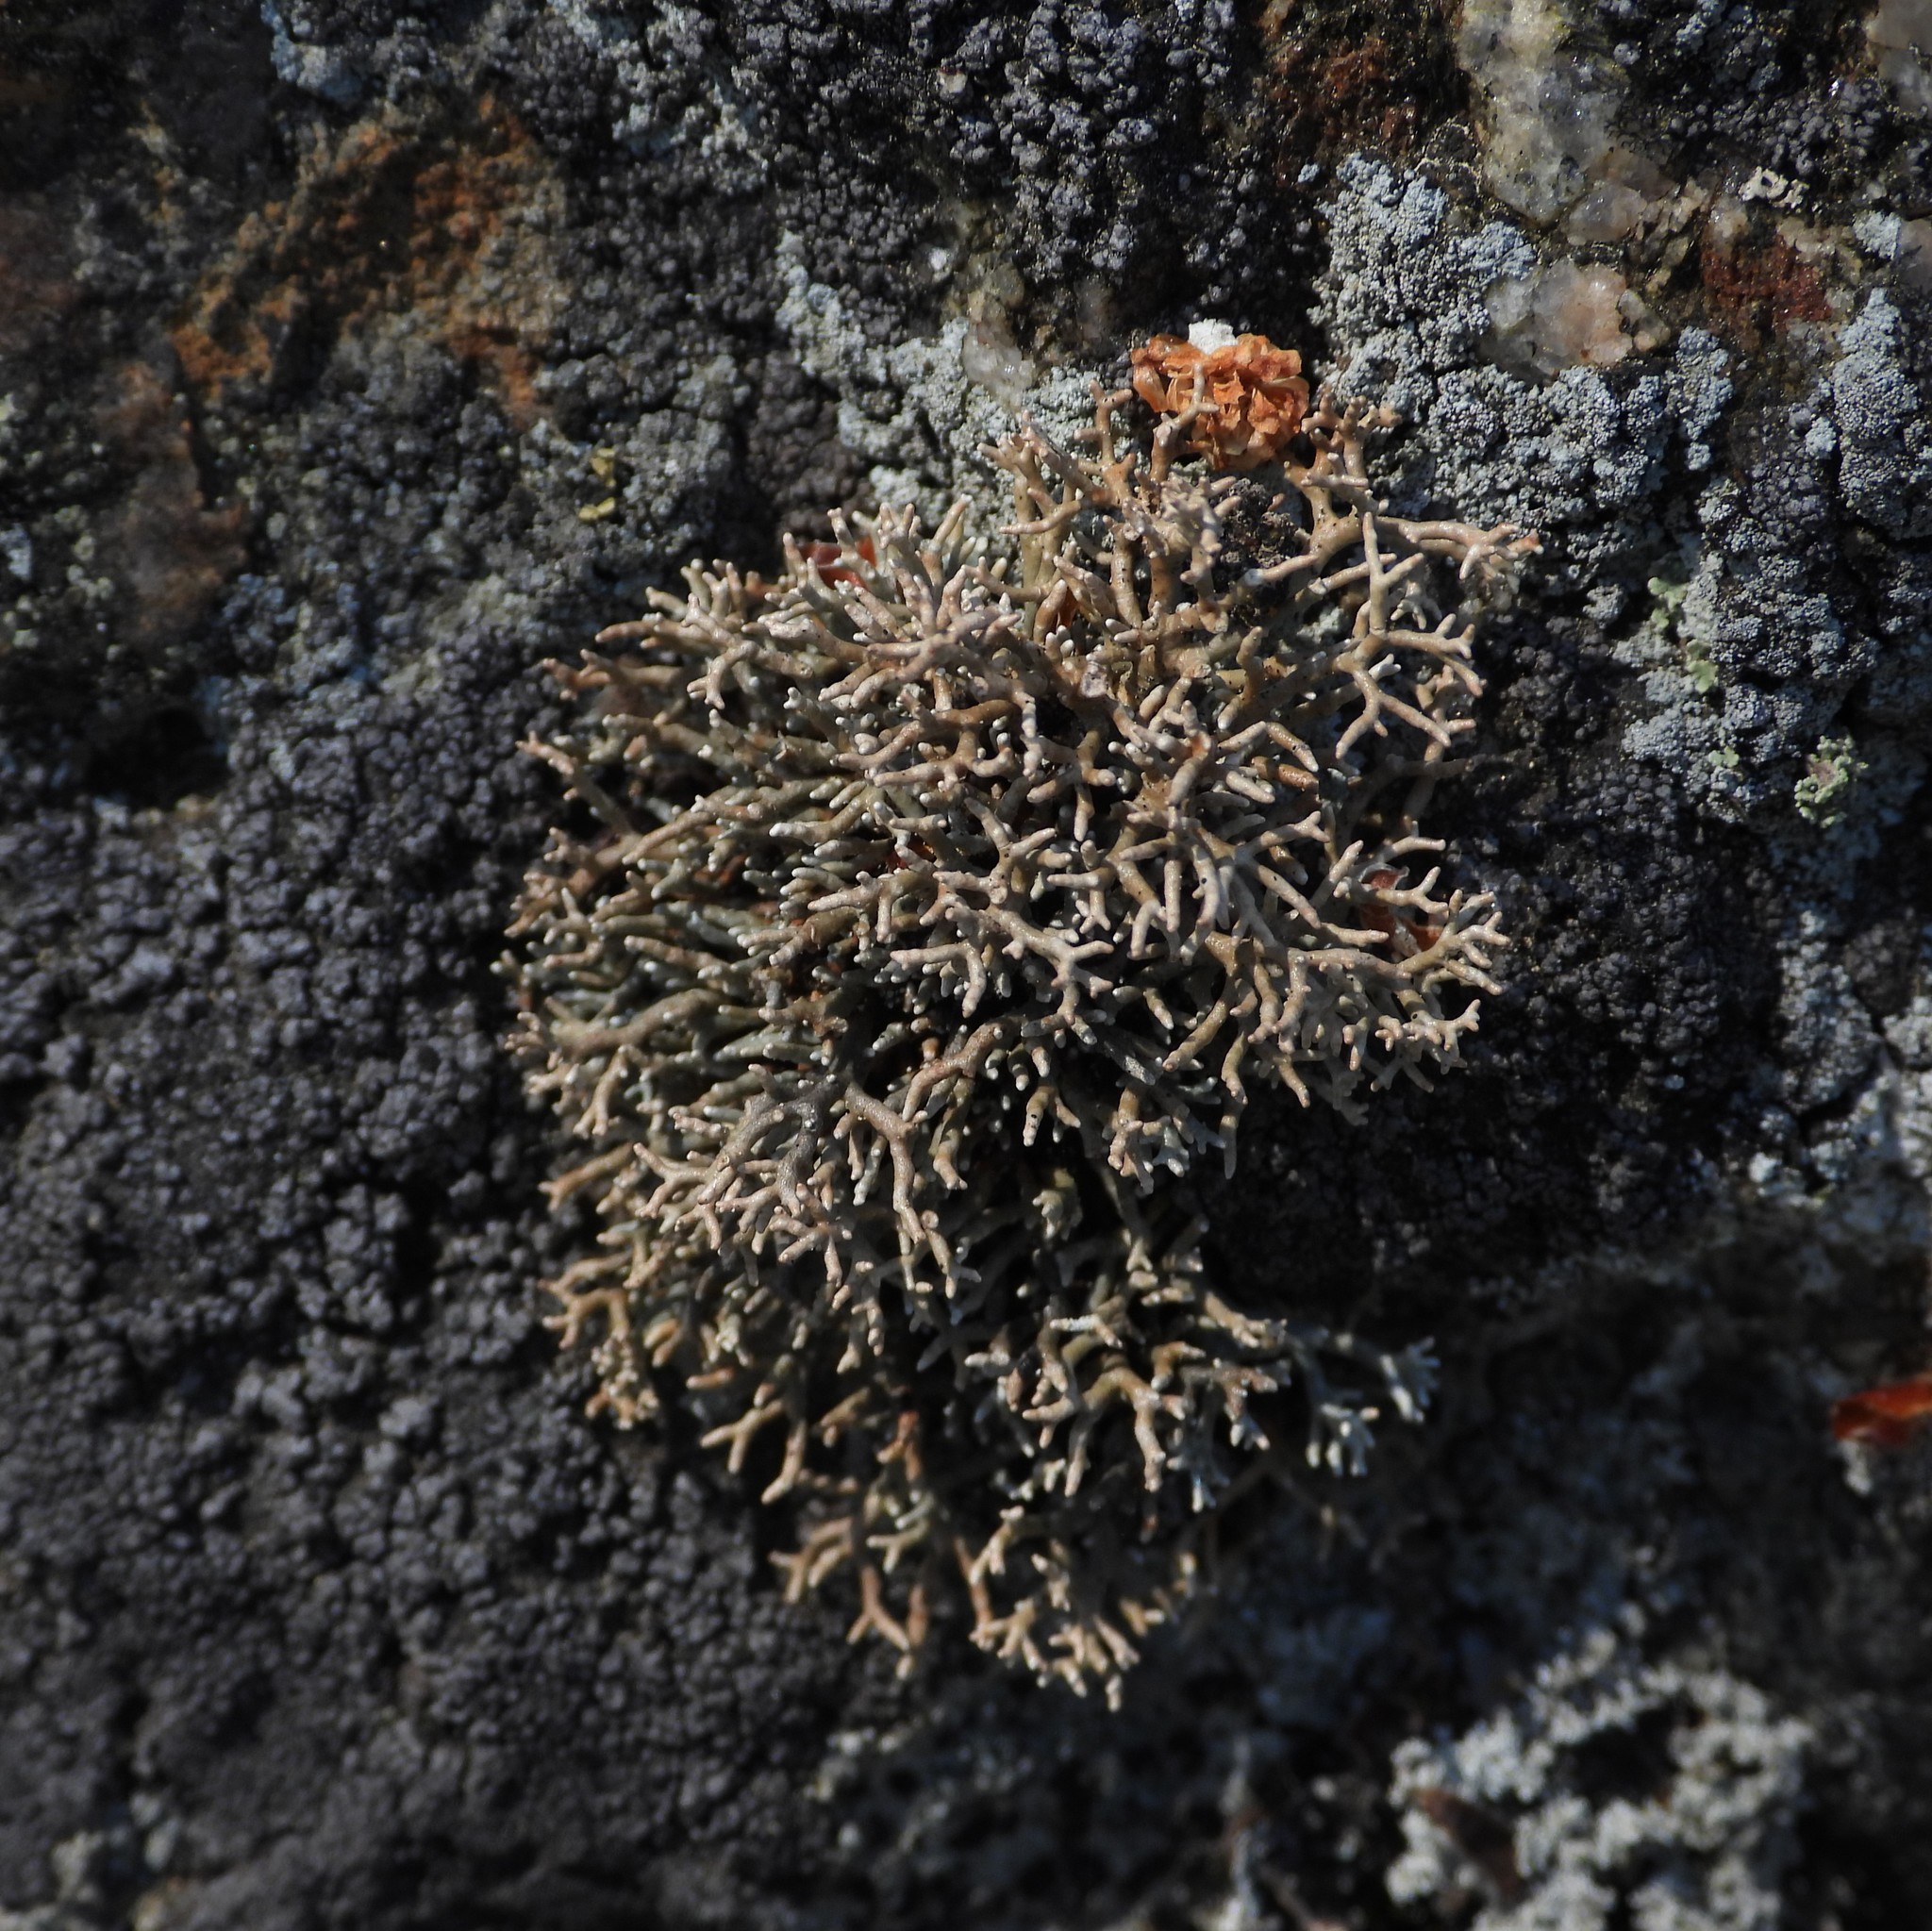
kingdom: Fungi
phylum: Ascomycota
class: Lecanoromycetes
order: Lecanorales
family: Sphaerophoraceae
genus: Sphaerophorus
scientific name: Sphaerophorus fragilis
